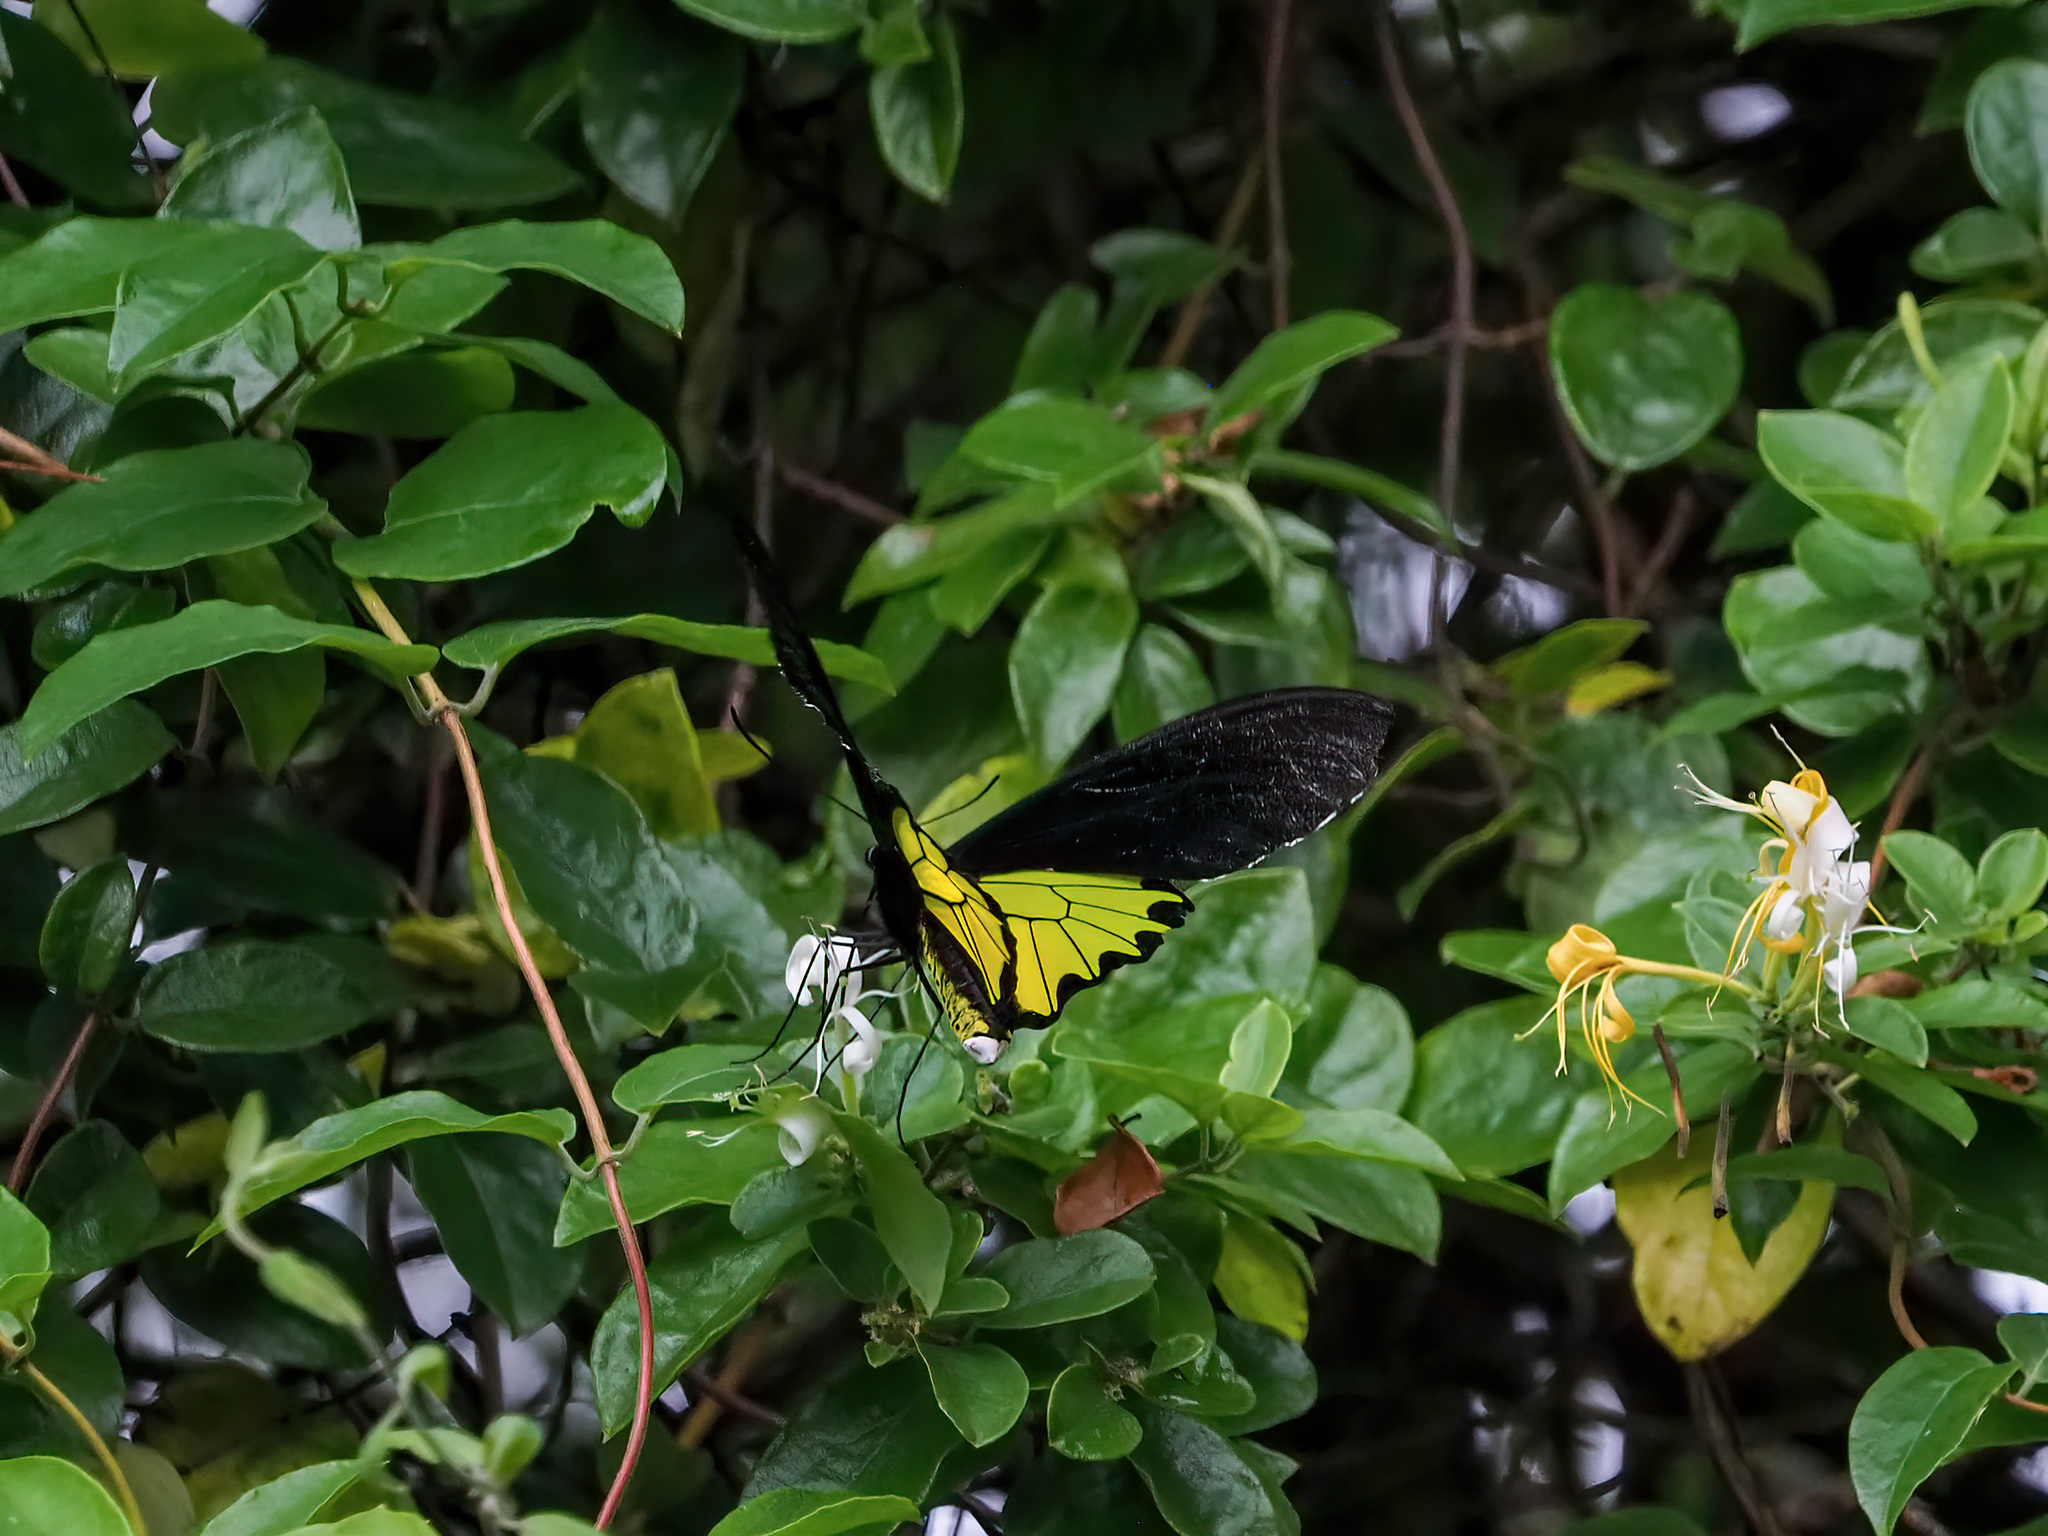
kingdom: Animalia
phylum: Arthropoda
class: Insecta
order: Lepidoptera
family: Papilionidae
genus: Troides
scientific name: Troides andromache
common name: Borneo birdwing
